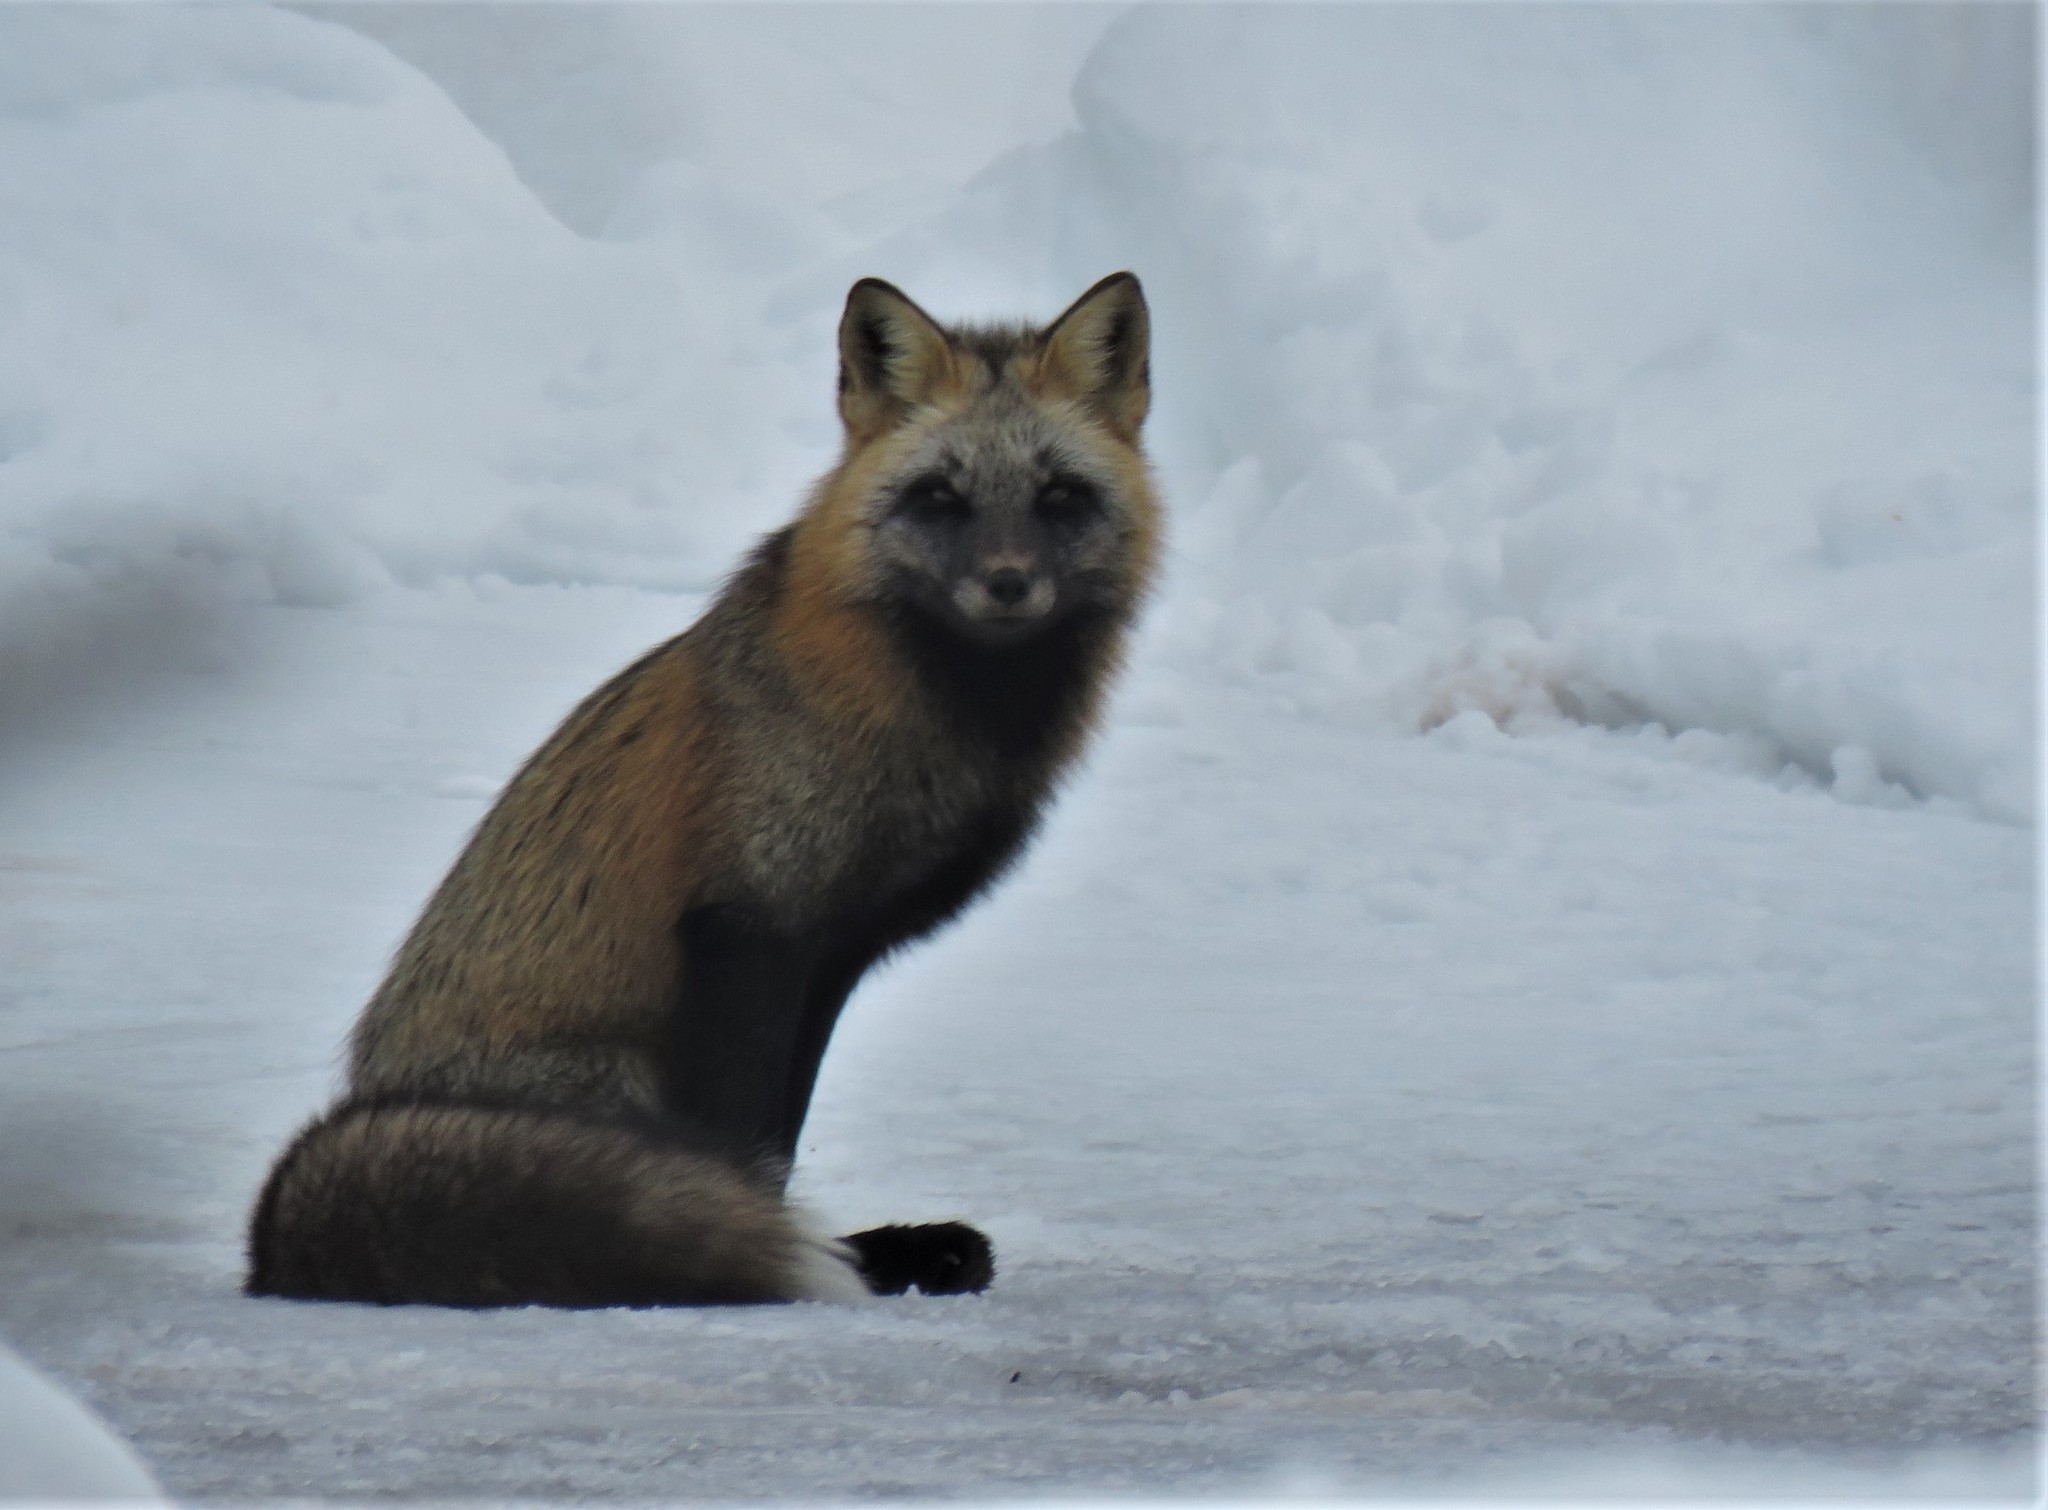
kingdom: Animalia
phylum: Chordata
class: Mammalia
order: Carnivora
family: Canidae
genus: Vulpes
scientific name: Vulpes vulpes
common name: Red fox
